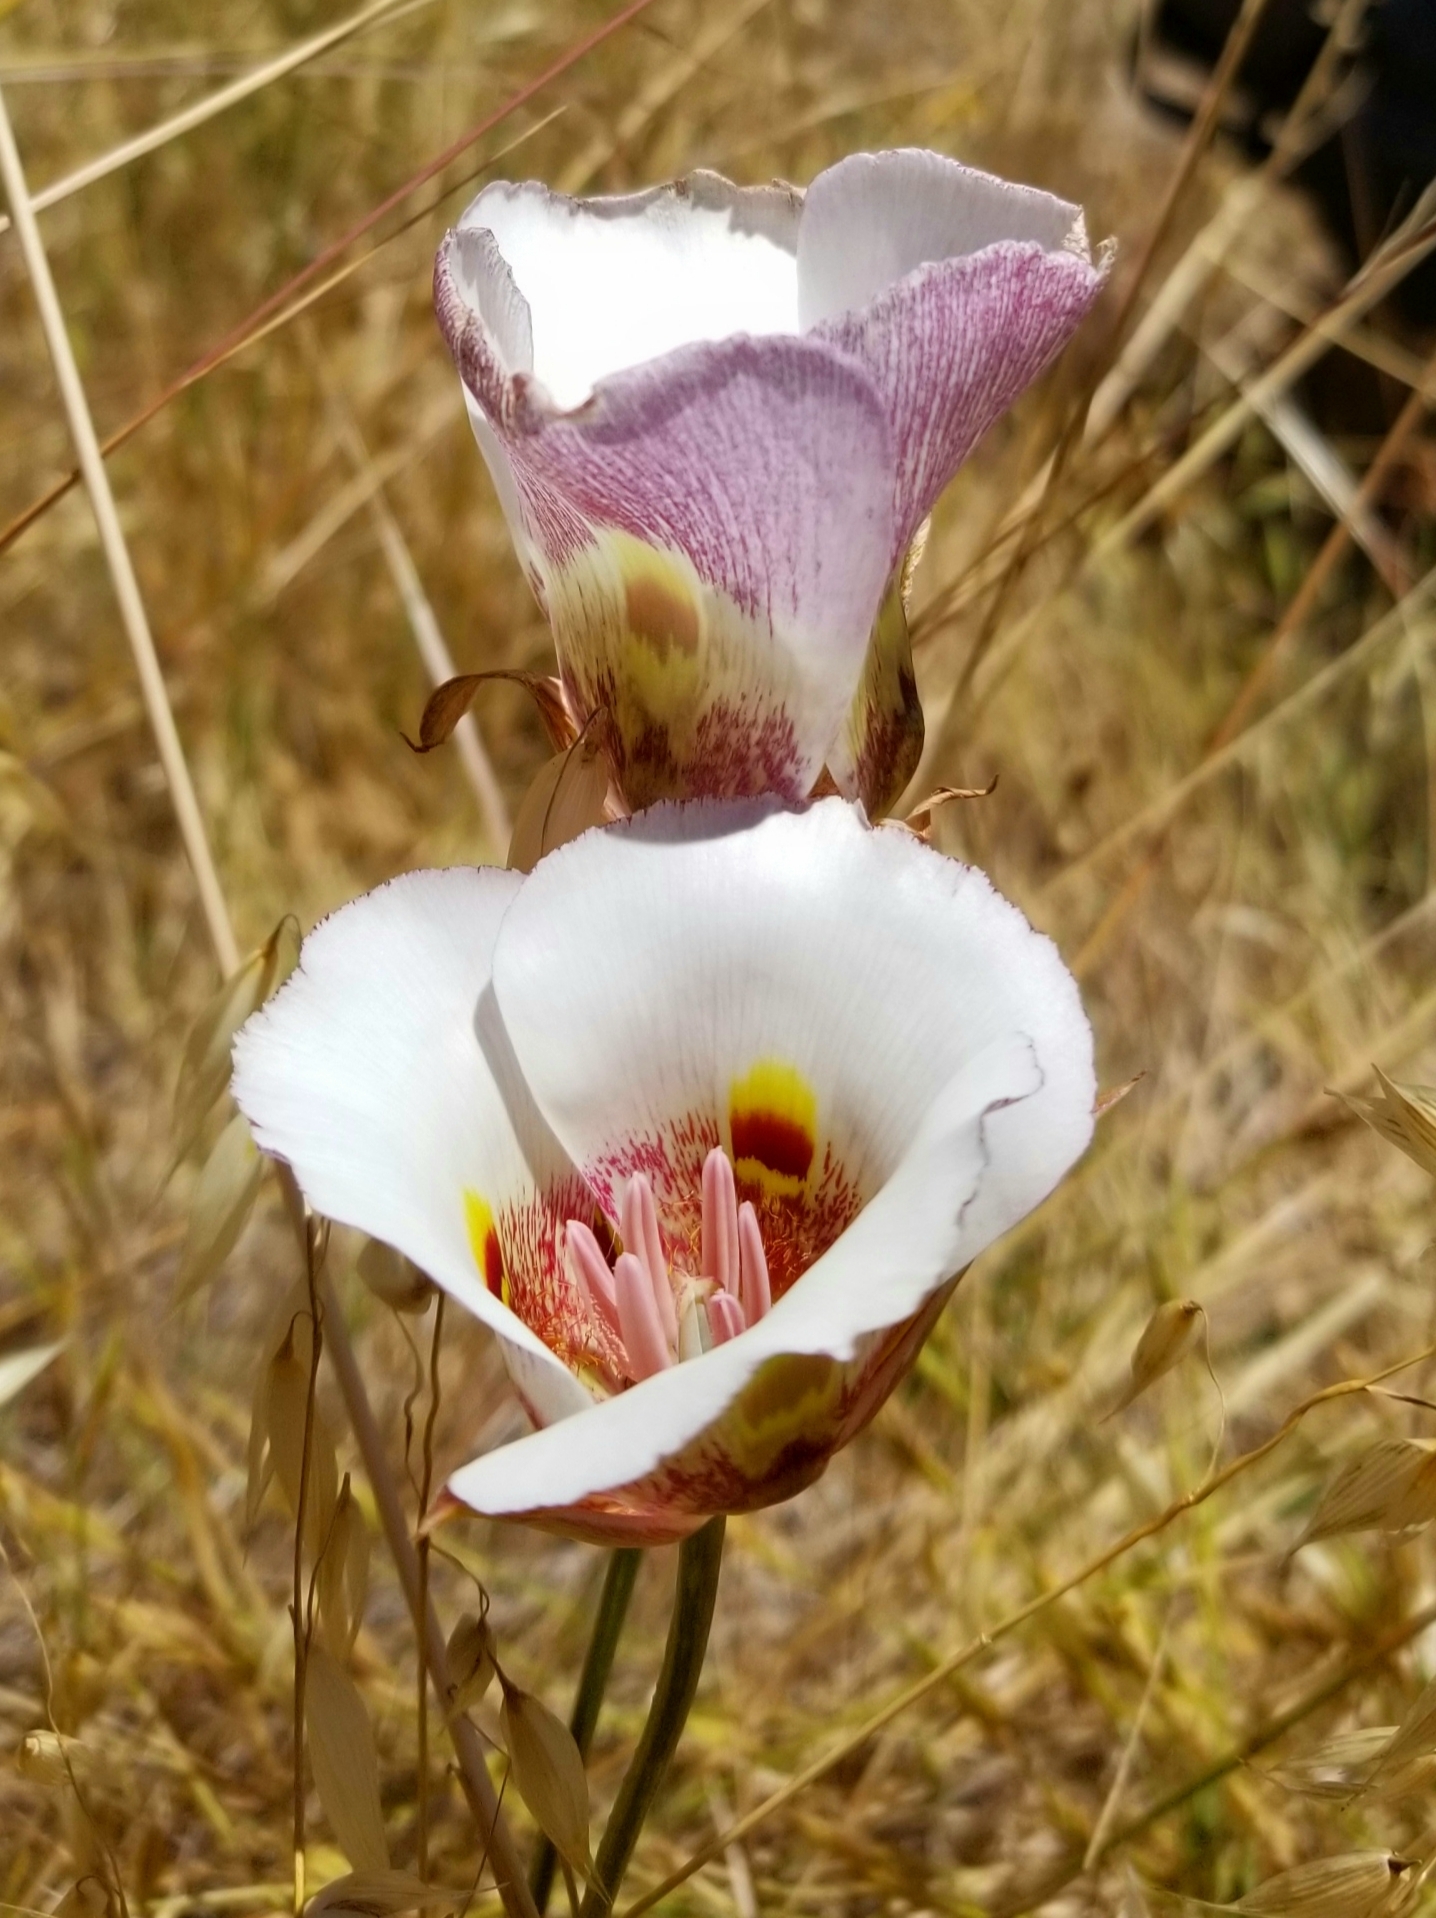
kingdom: Plantae
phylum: Tracheophyta
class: Liliopsida
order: Liliales
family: Liliaceae
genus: Calochortus
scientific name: Calochortus argillosus
